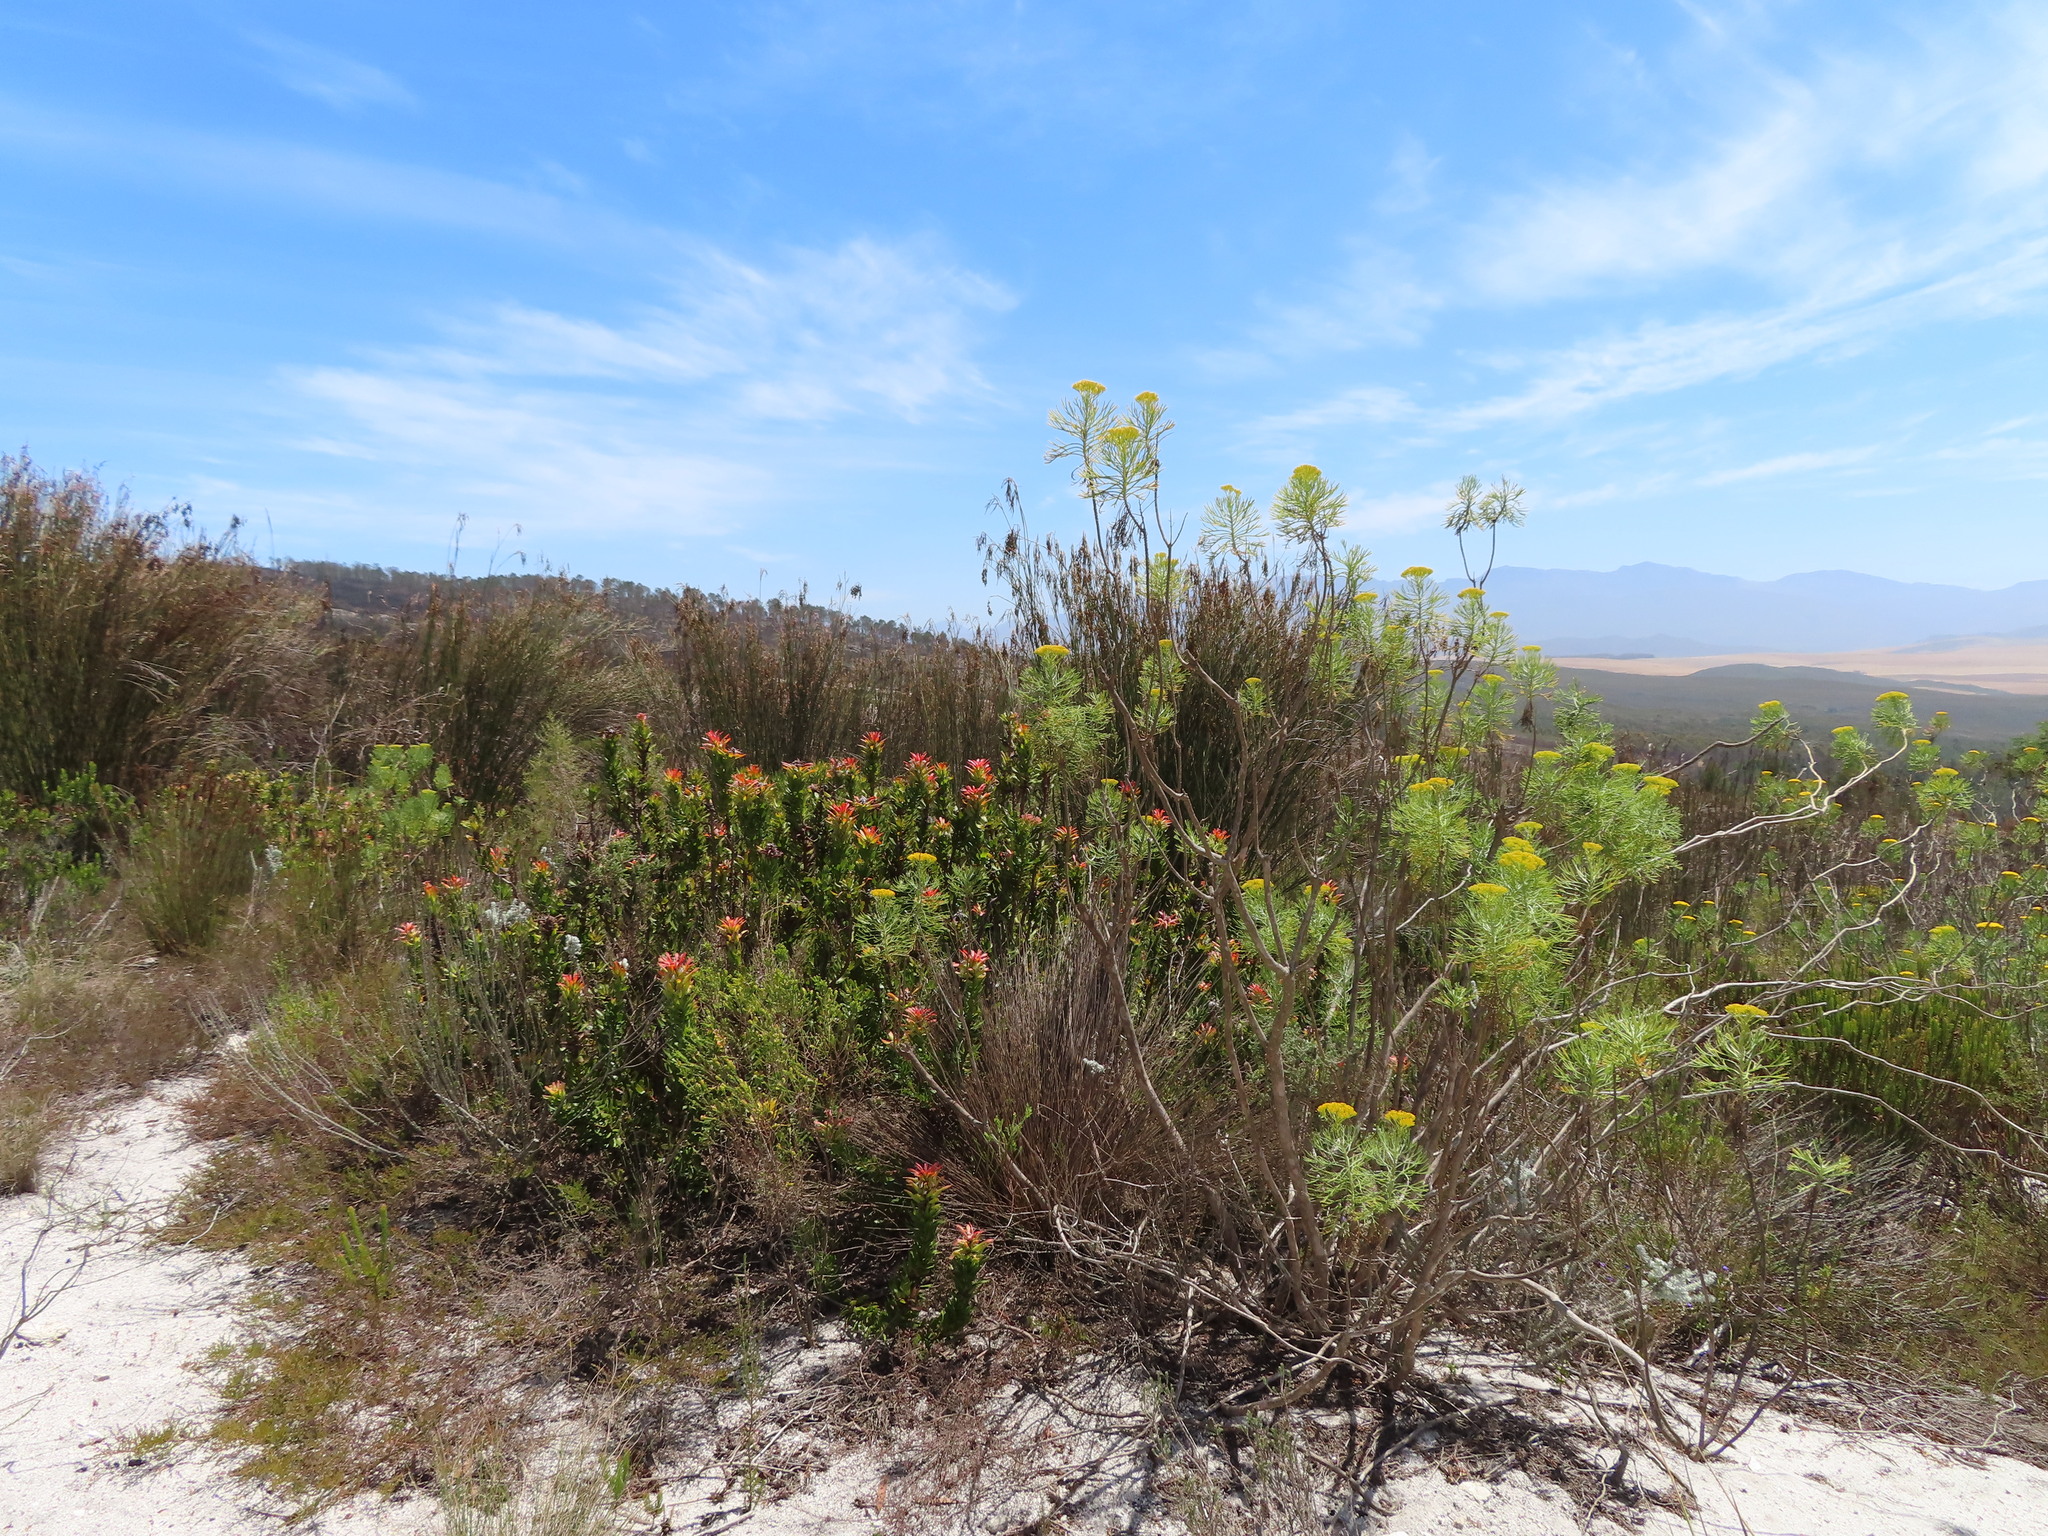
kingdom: Plantae
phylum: Tracheophyta
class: Magnoliopsida
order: Proteales
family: Proteaceae
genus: Mimetes
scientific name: Mimetes cucullatus
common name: Common pagoda
